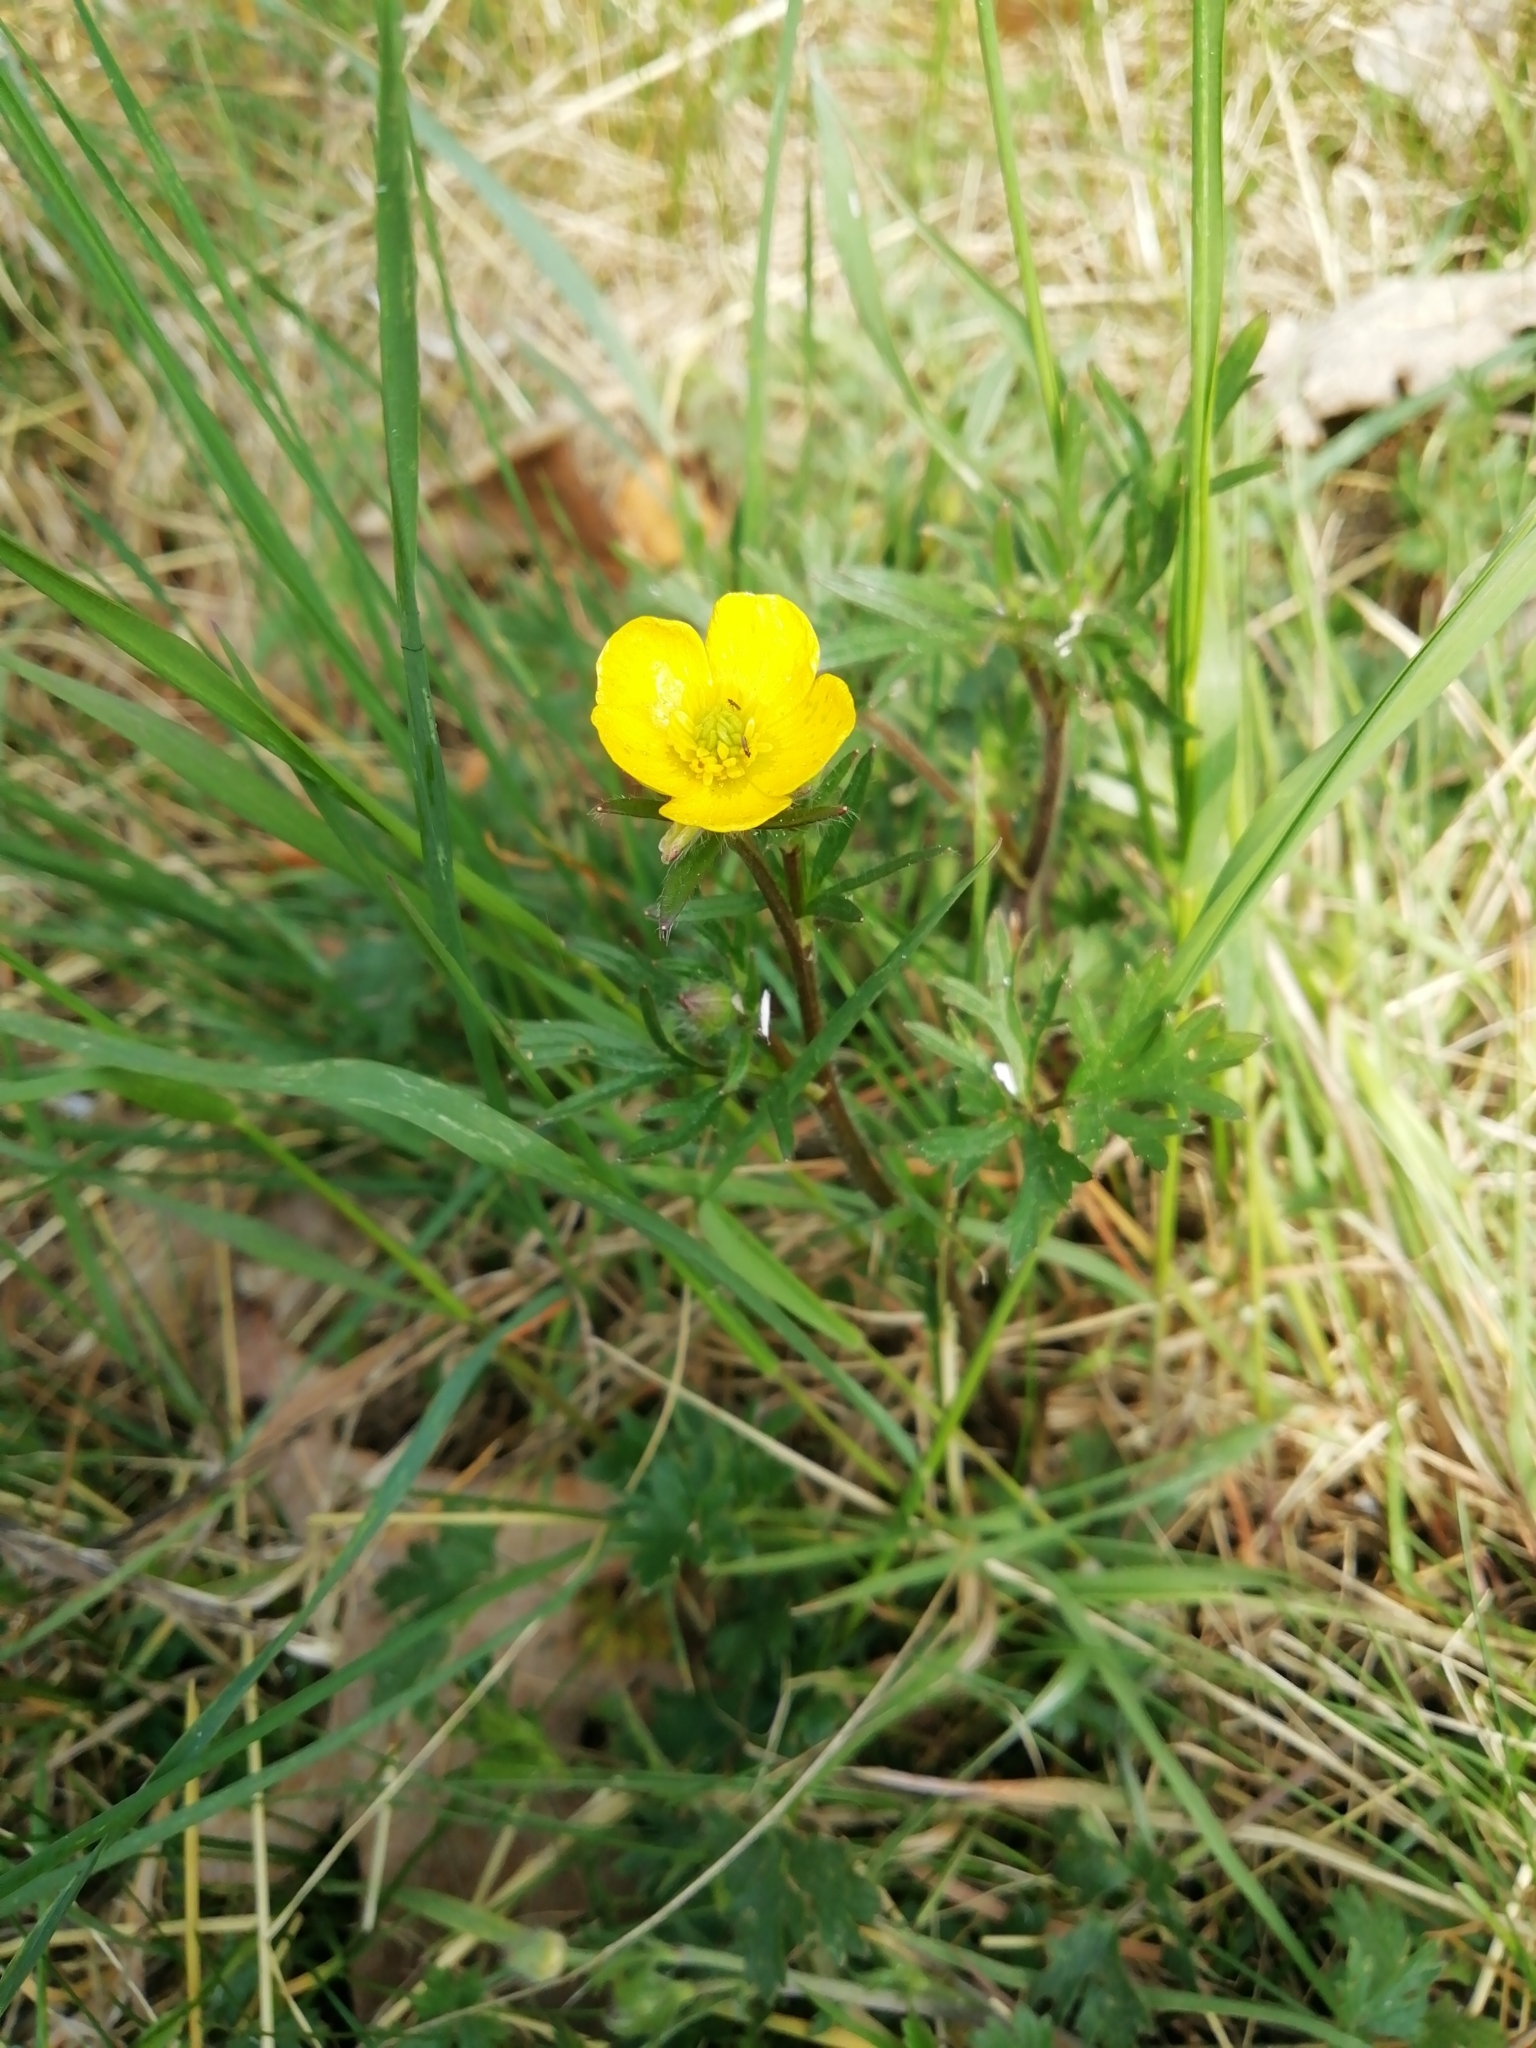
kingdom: Plantae
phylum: Tracheophyta
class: Magnoliopsida
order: Ranunculales
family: Ranunculaceae
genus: Ranunculus
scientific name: Ranunculus bulbosus
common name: Bulbous buttercup
